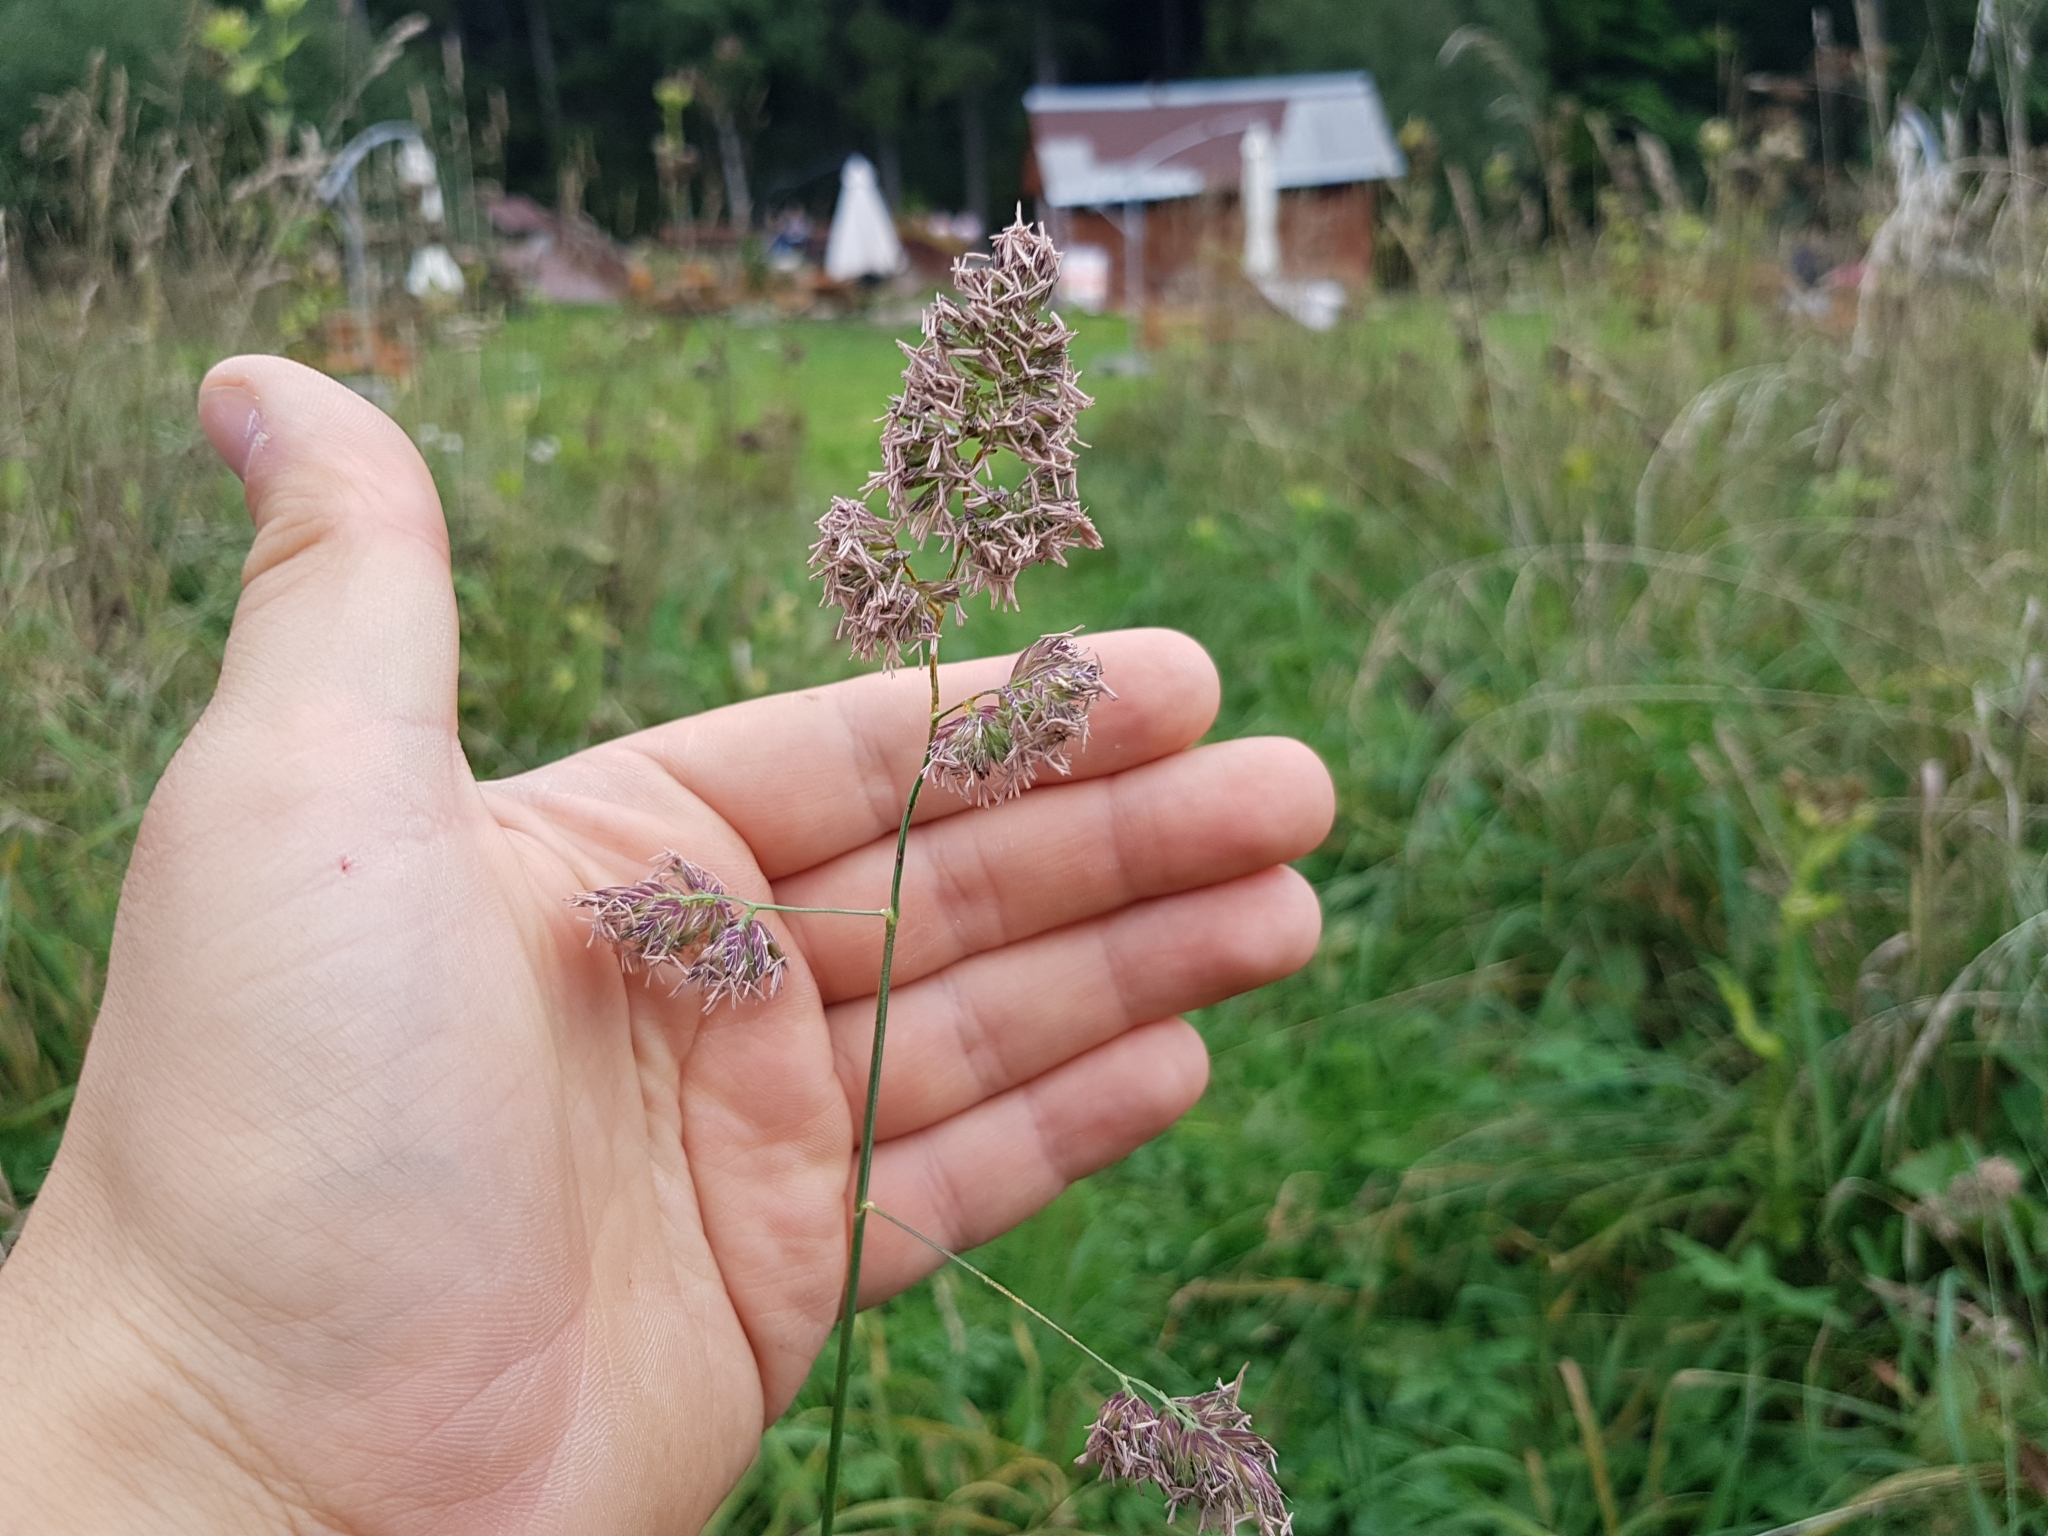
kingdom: Plantae
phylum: Tracheophyta
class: Liliopsida
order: Poales
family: Poaceae
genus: Dactylis
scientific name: Dactylis glomerata
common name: Orchardgrass
